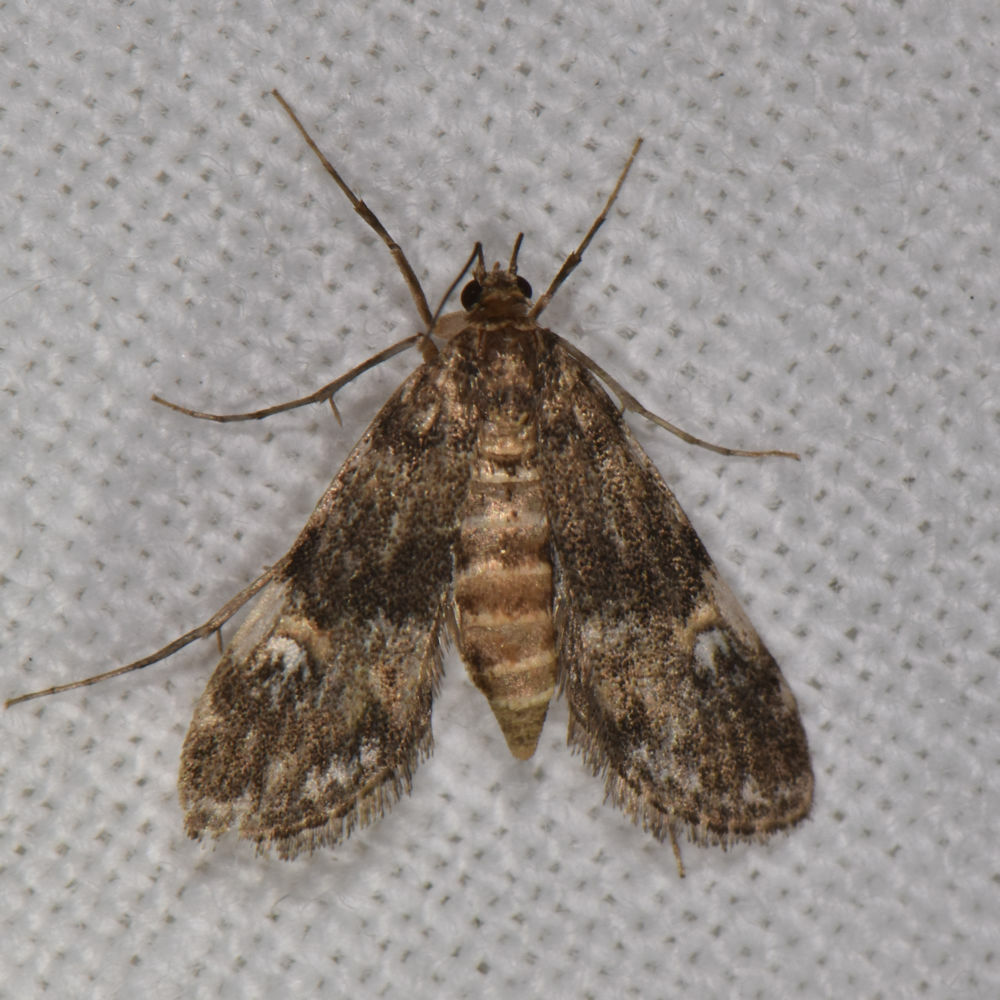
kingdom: Animalia
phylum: Arthropoda
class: Insecta
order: Lepidoptera
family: Crambidae
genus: Elophila
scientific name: Elophila obliteralis
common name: Waterlily leafcutter moth
